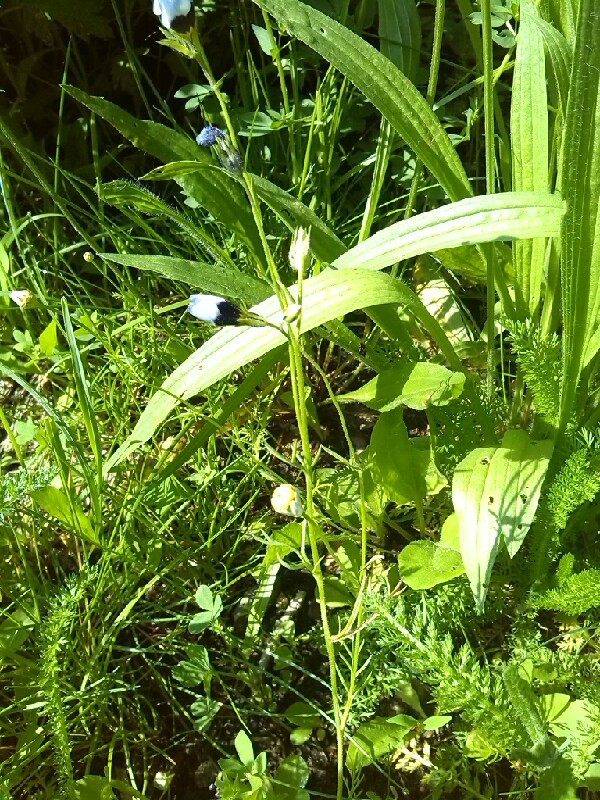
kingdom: Plantae
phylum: Tracheophyta
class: Magnoliopsida
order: Ericales
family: Polemoniaceae
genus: Gilia
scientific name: Gilia tricolor
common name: Bird's-eyes
